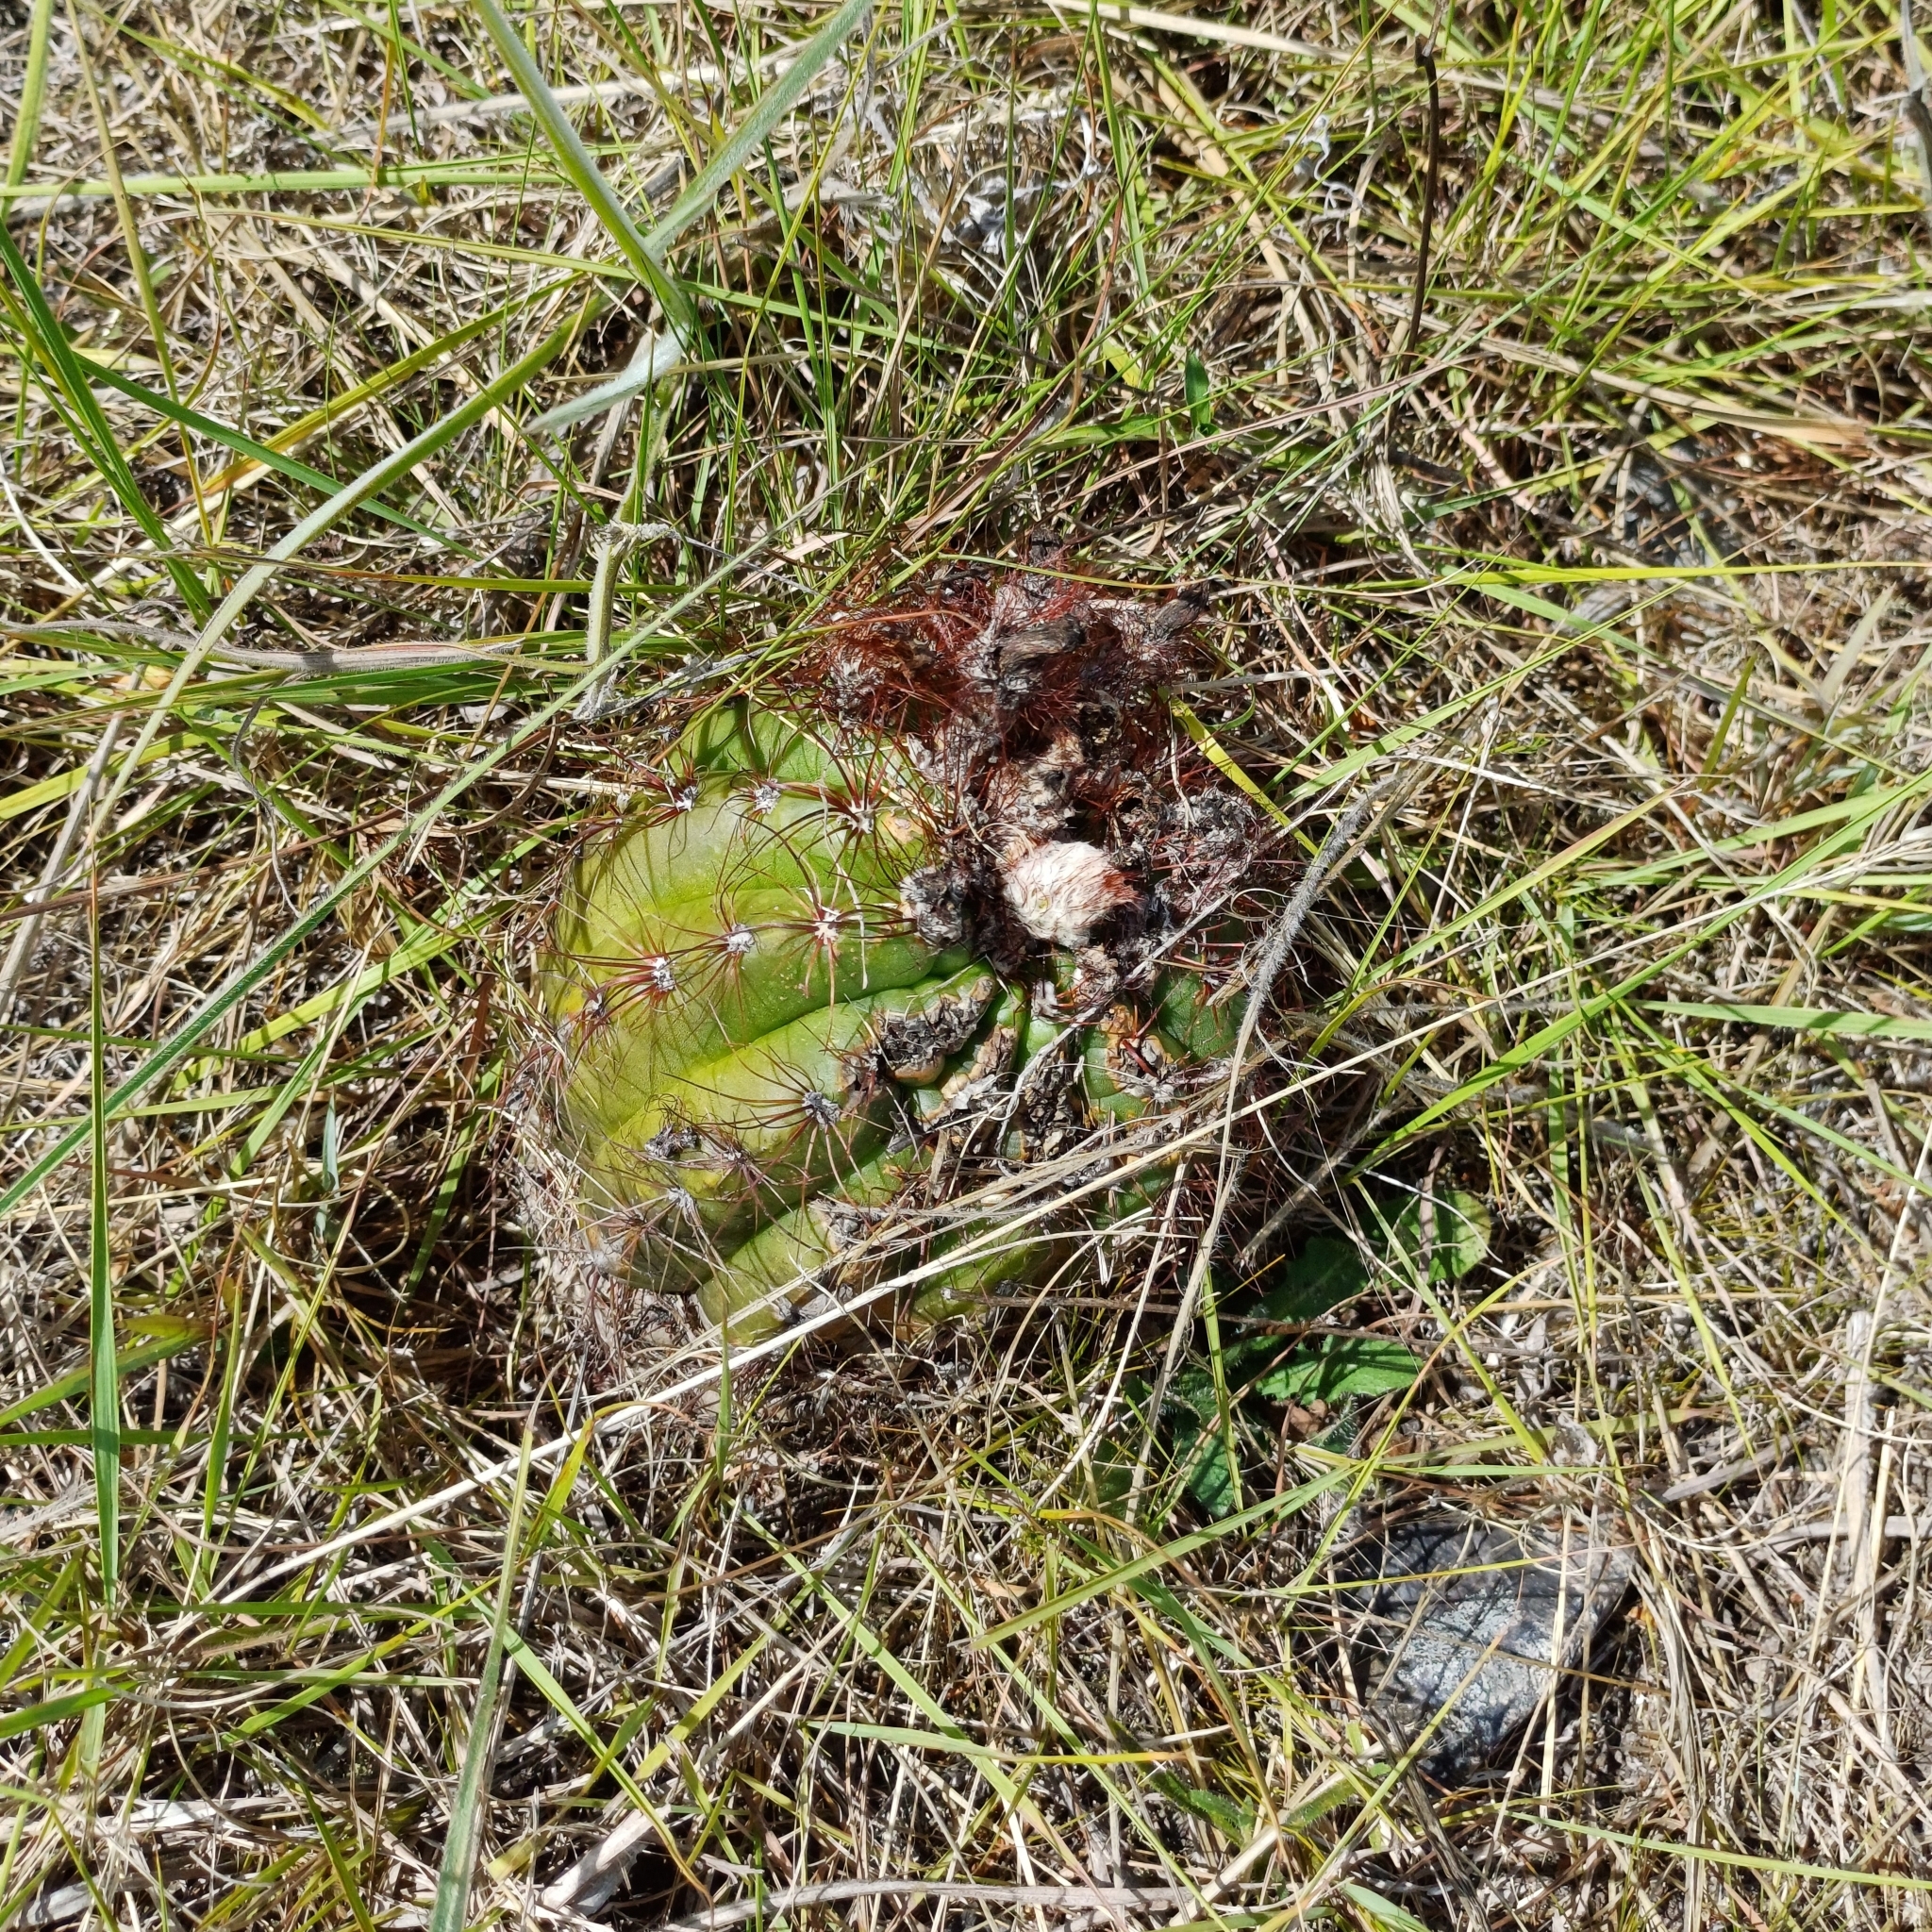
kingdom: Plantae
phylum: Tracheophyta
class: Magnoliopsida
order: Caryophyllales
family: Cactaceae
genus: Parodia
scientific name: Parodia ottonis
